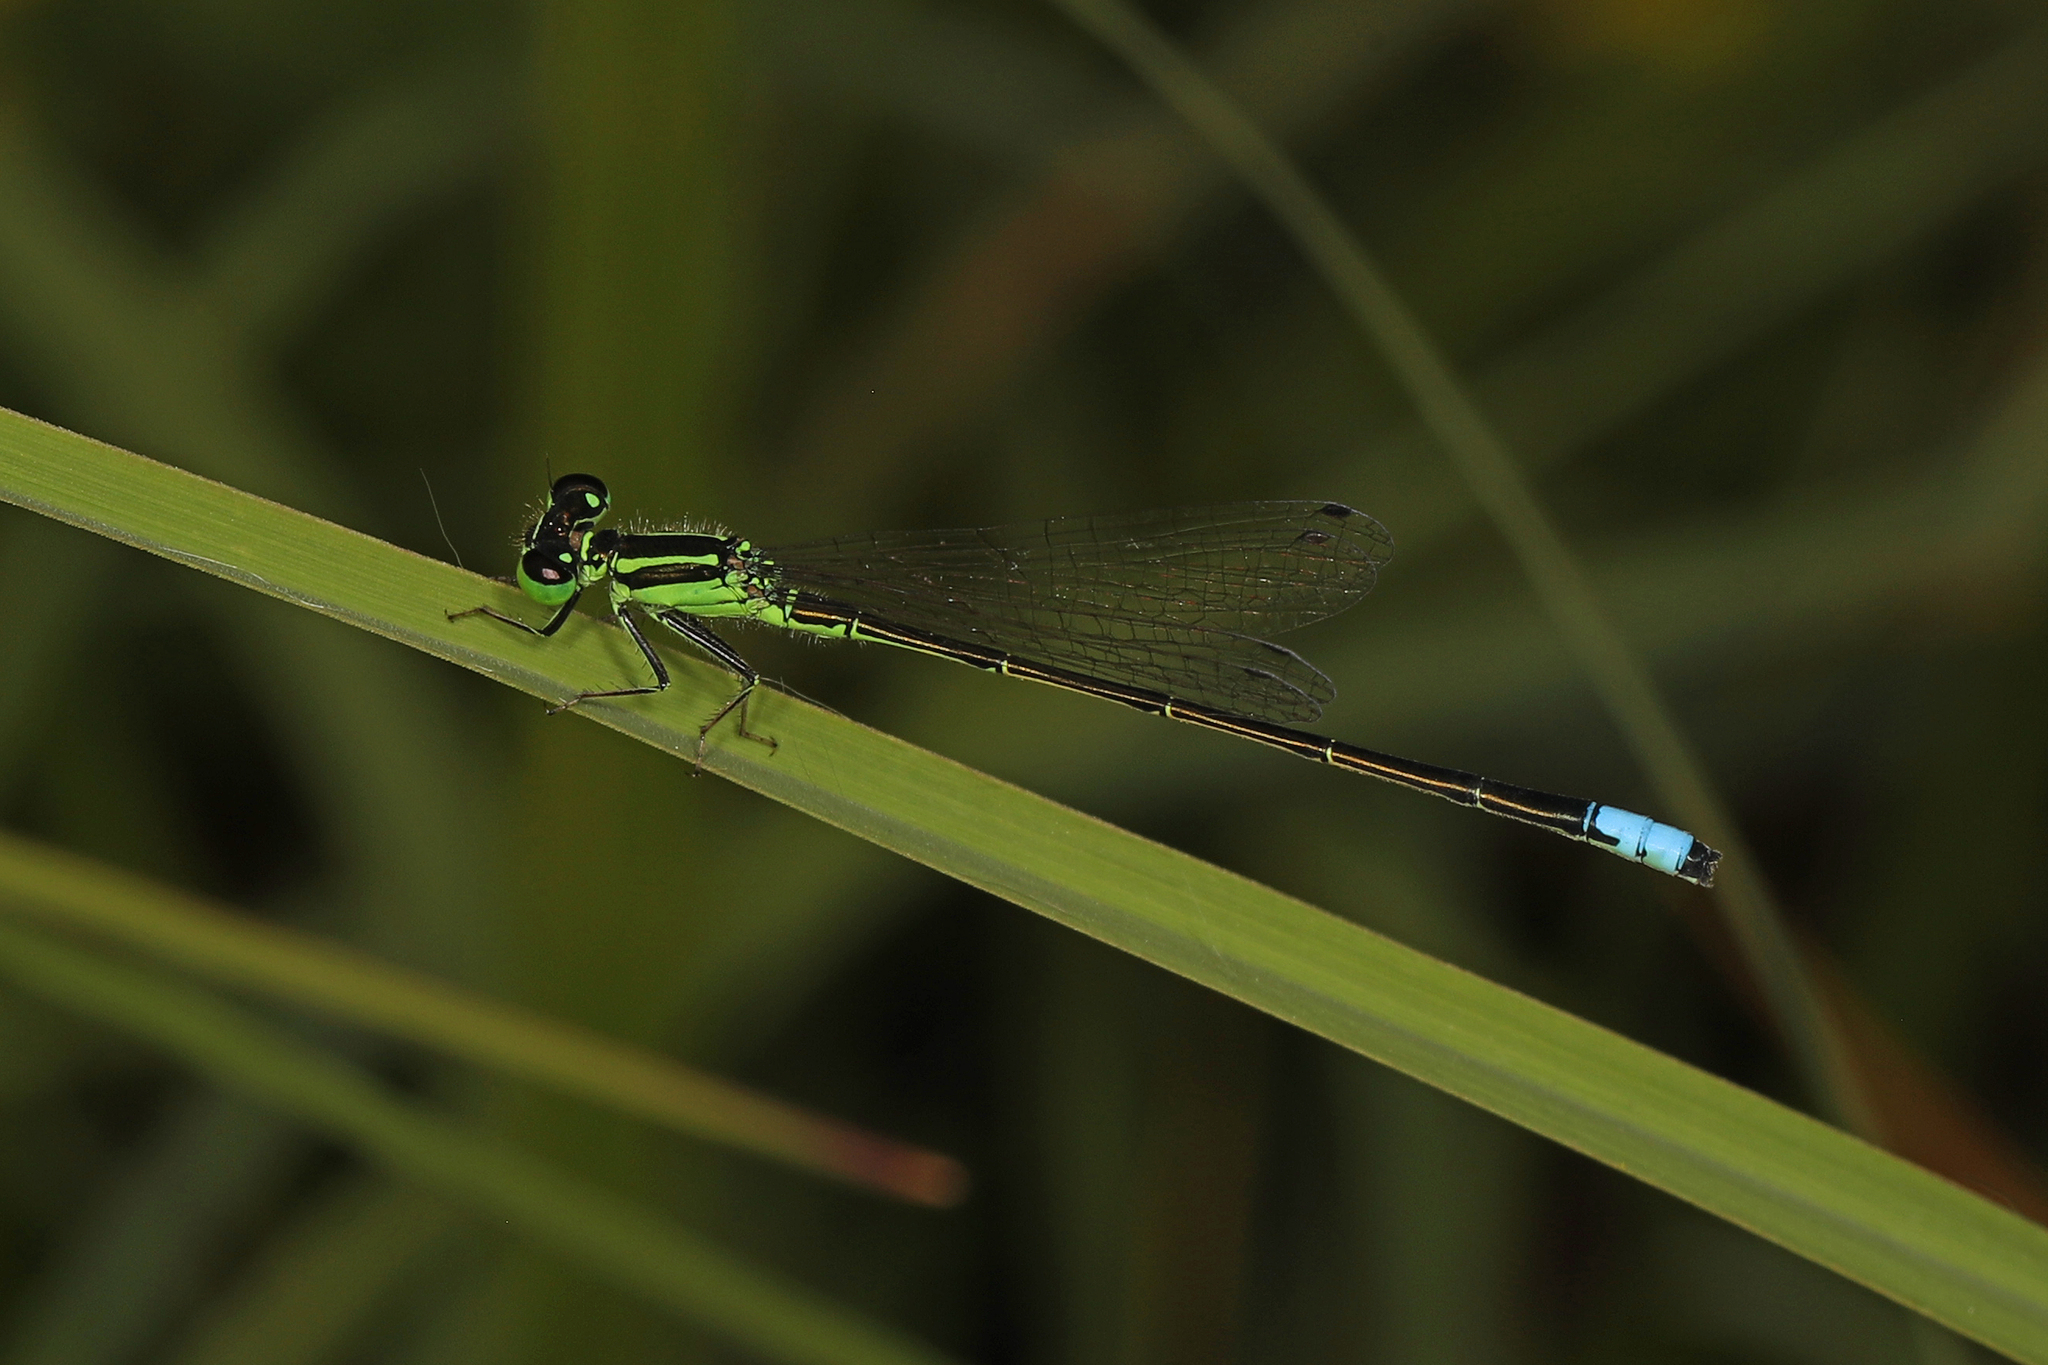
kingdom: Animalia
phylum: Arthropoda
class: Insecta
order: Odonata
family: Coenagrionidae
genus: Ischnura
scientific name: Ischnura verticalis
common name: Eastern forktail
